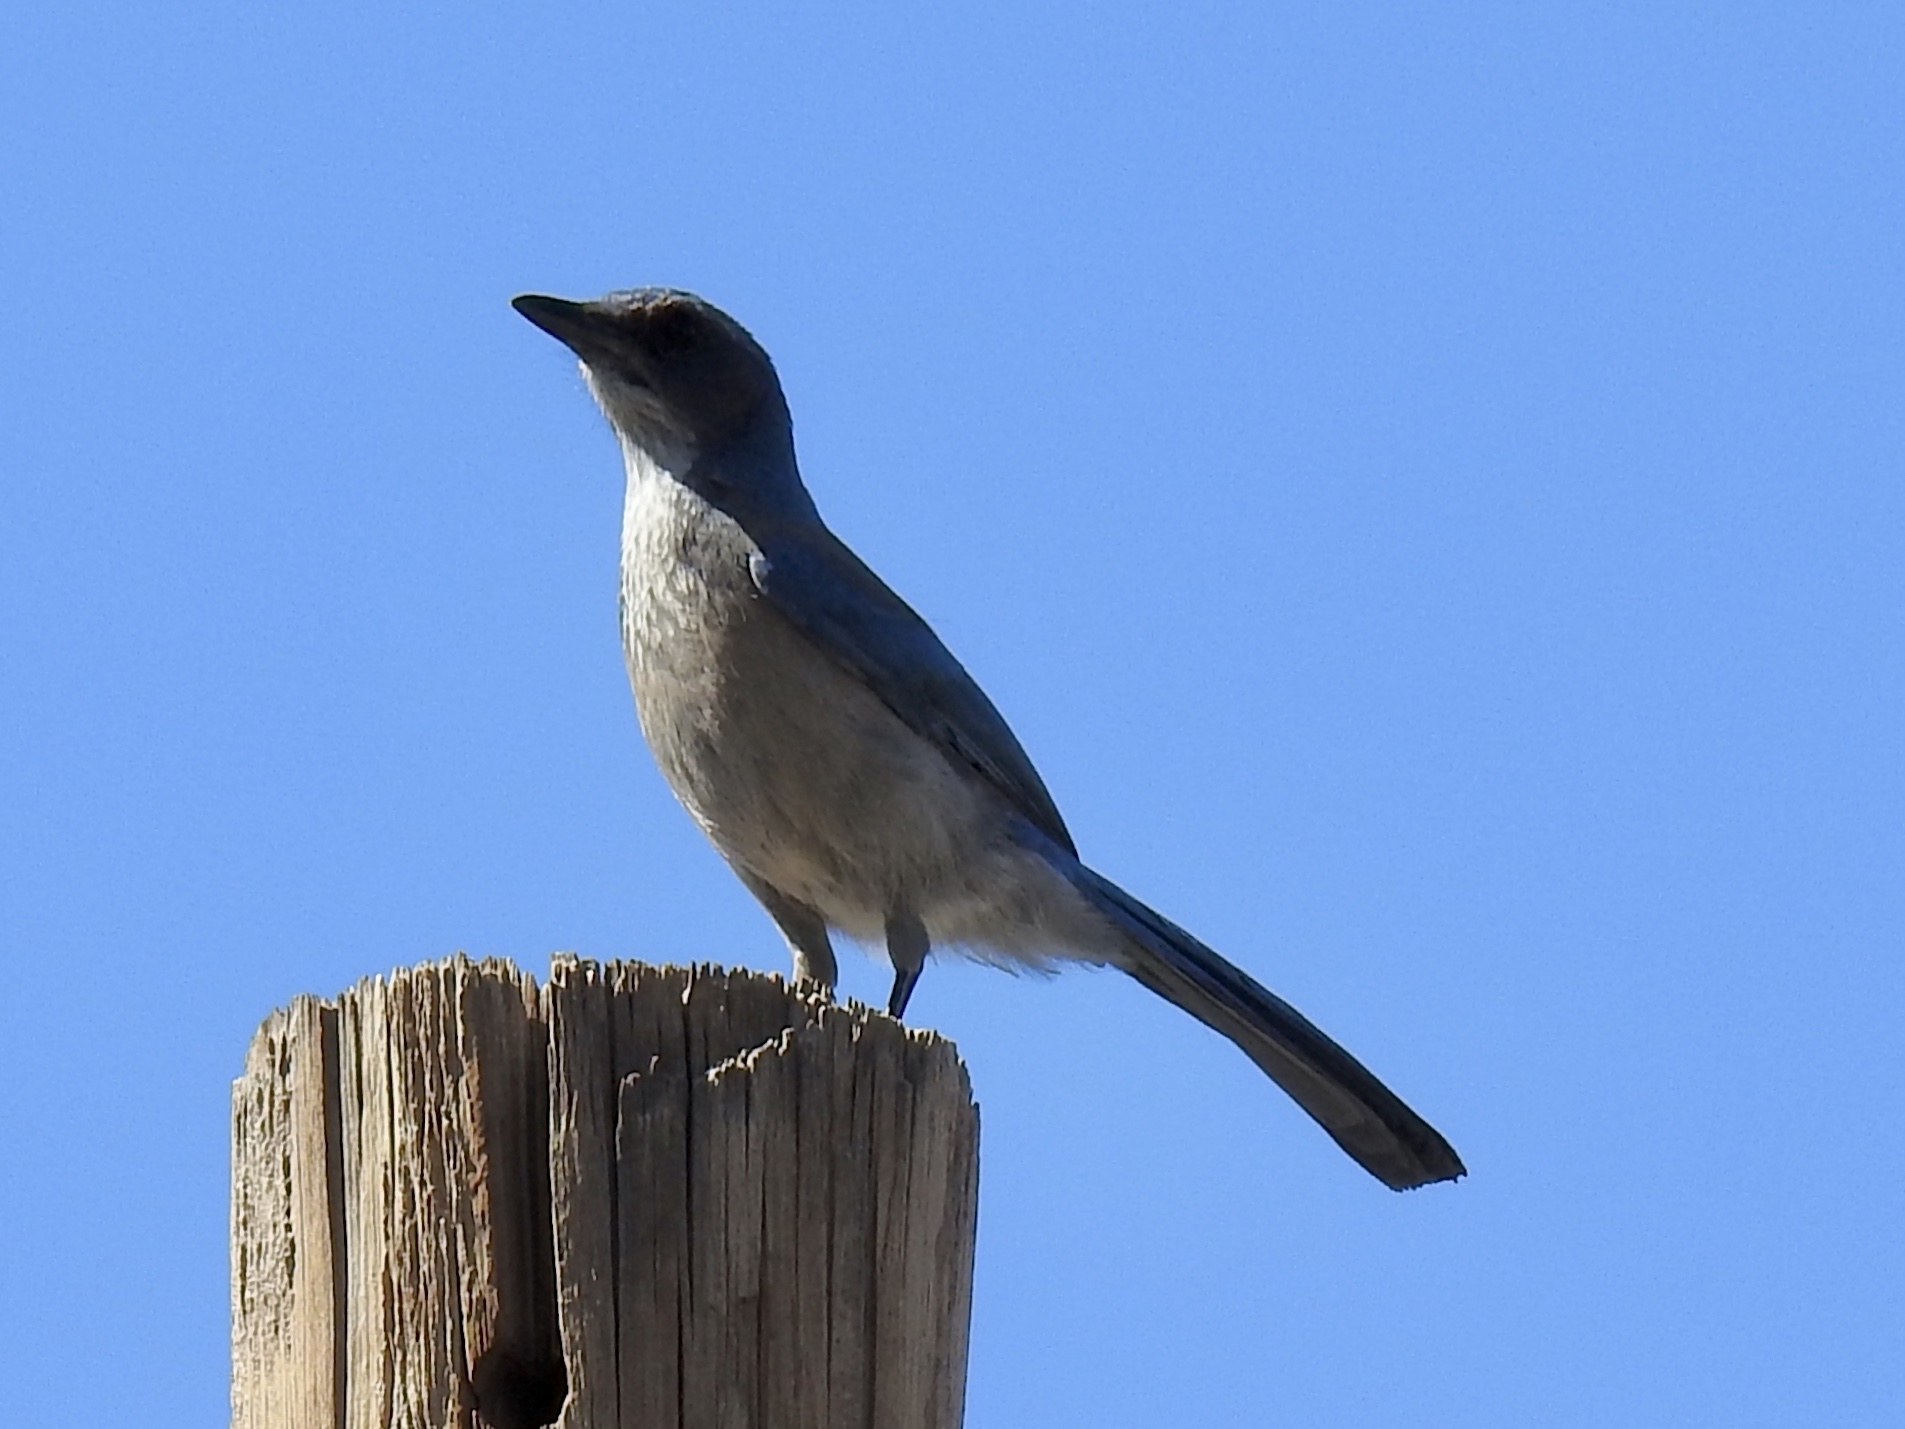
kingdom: Animalia
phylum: Chordata
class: Aves
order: Passeriformes
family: Corvidae
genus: Aphelocoma
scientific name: Aphelocoma woodhouseii
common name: Woodhouse's scrub-jay
